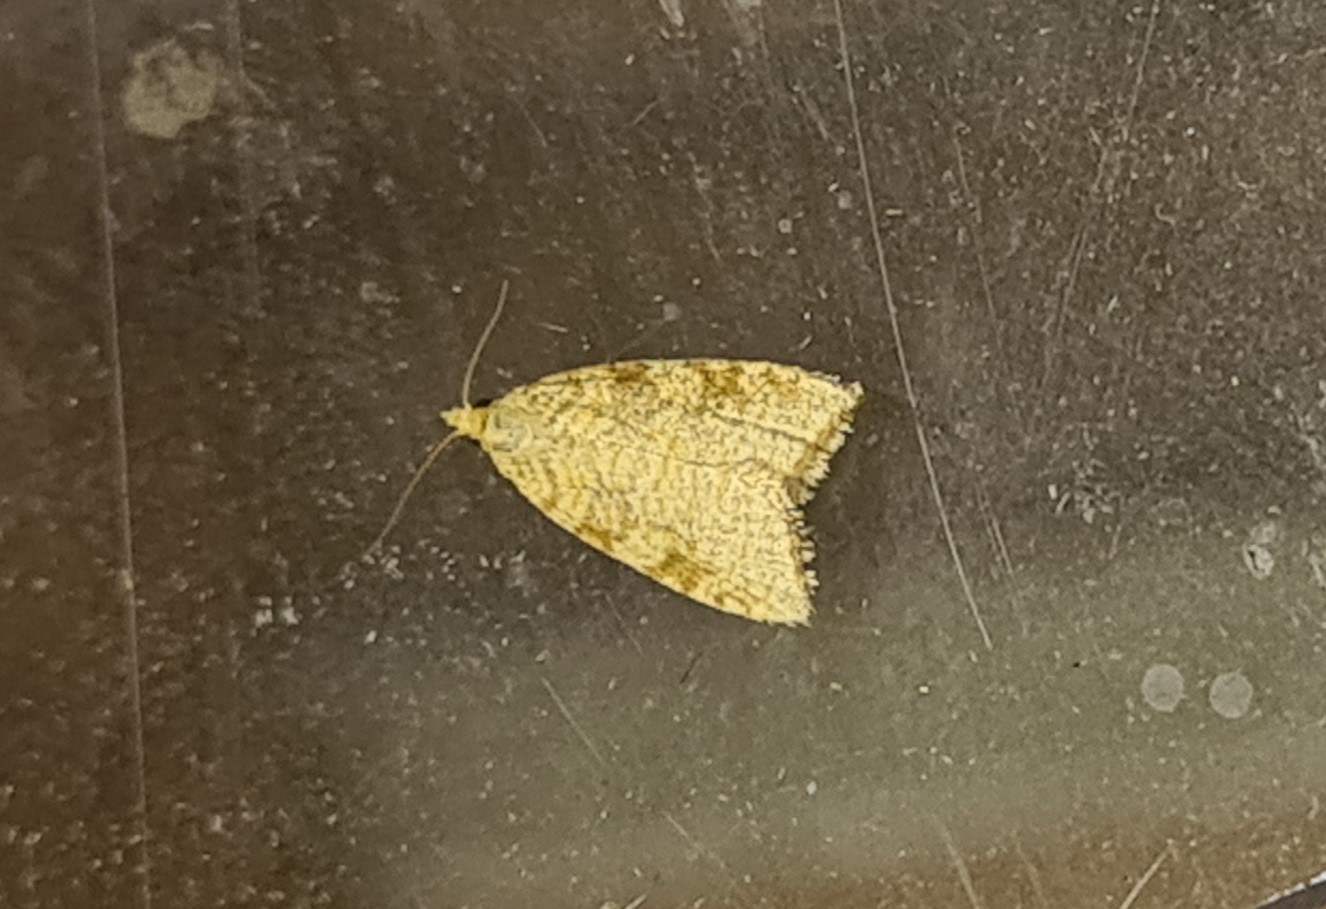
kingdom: Animalia
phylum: Arthropoda
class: Insecta
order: Lepidoptera
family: Tortricidae
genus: Aleimma
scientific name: Aleimma loeflingiana
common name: Yellow oak button
